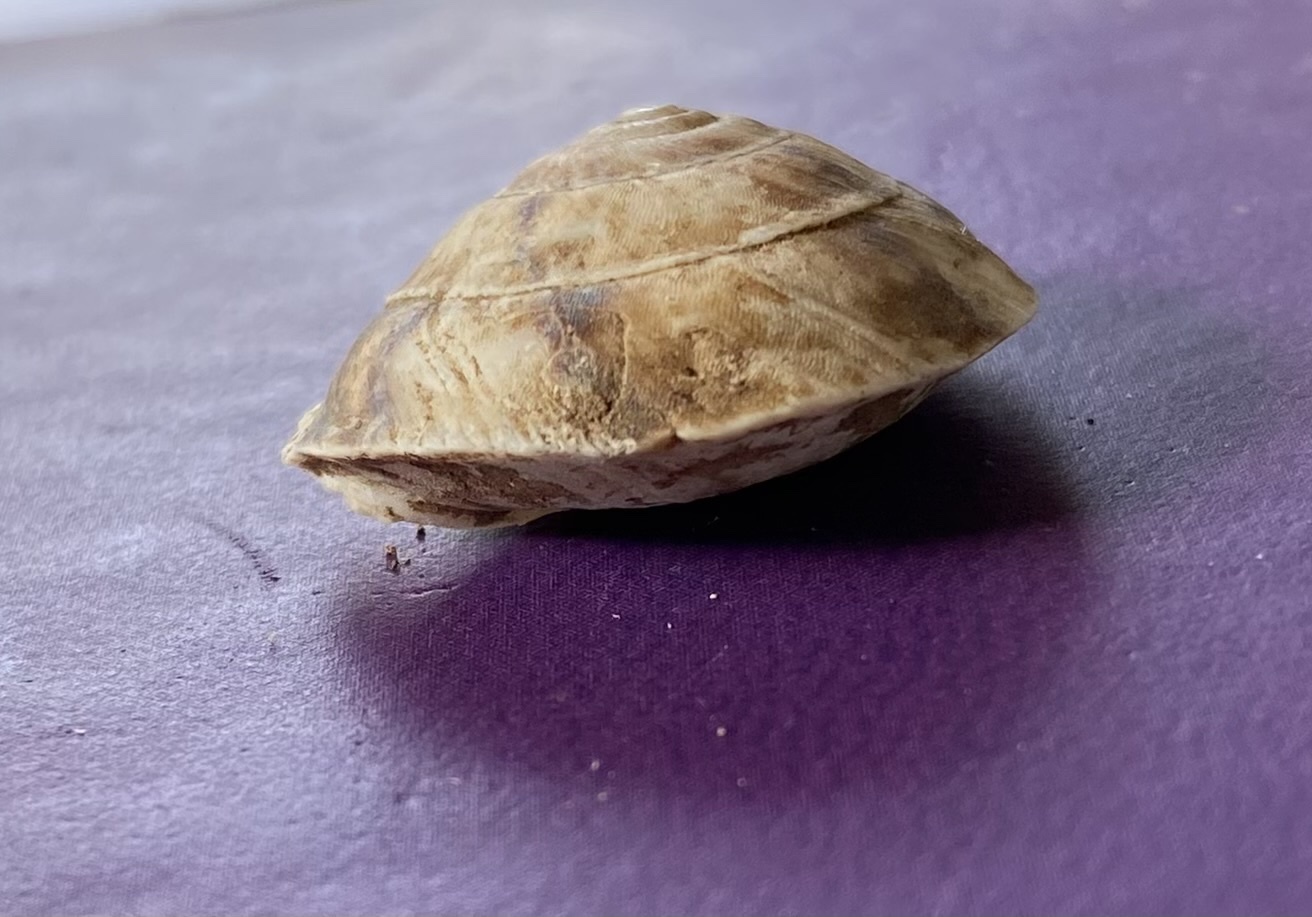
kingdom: Animalia
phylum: Mollusca
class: Gastropoda
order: Stylommatophora
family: Helicidae
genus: Helicigona
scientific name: Helicigona lapicida
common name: Lapidary snail
